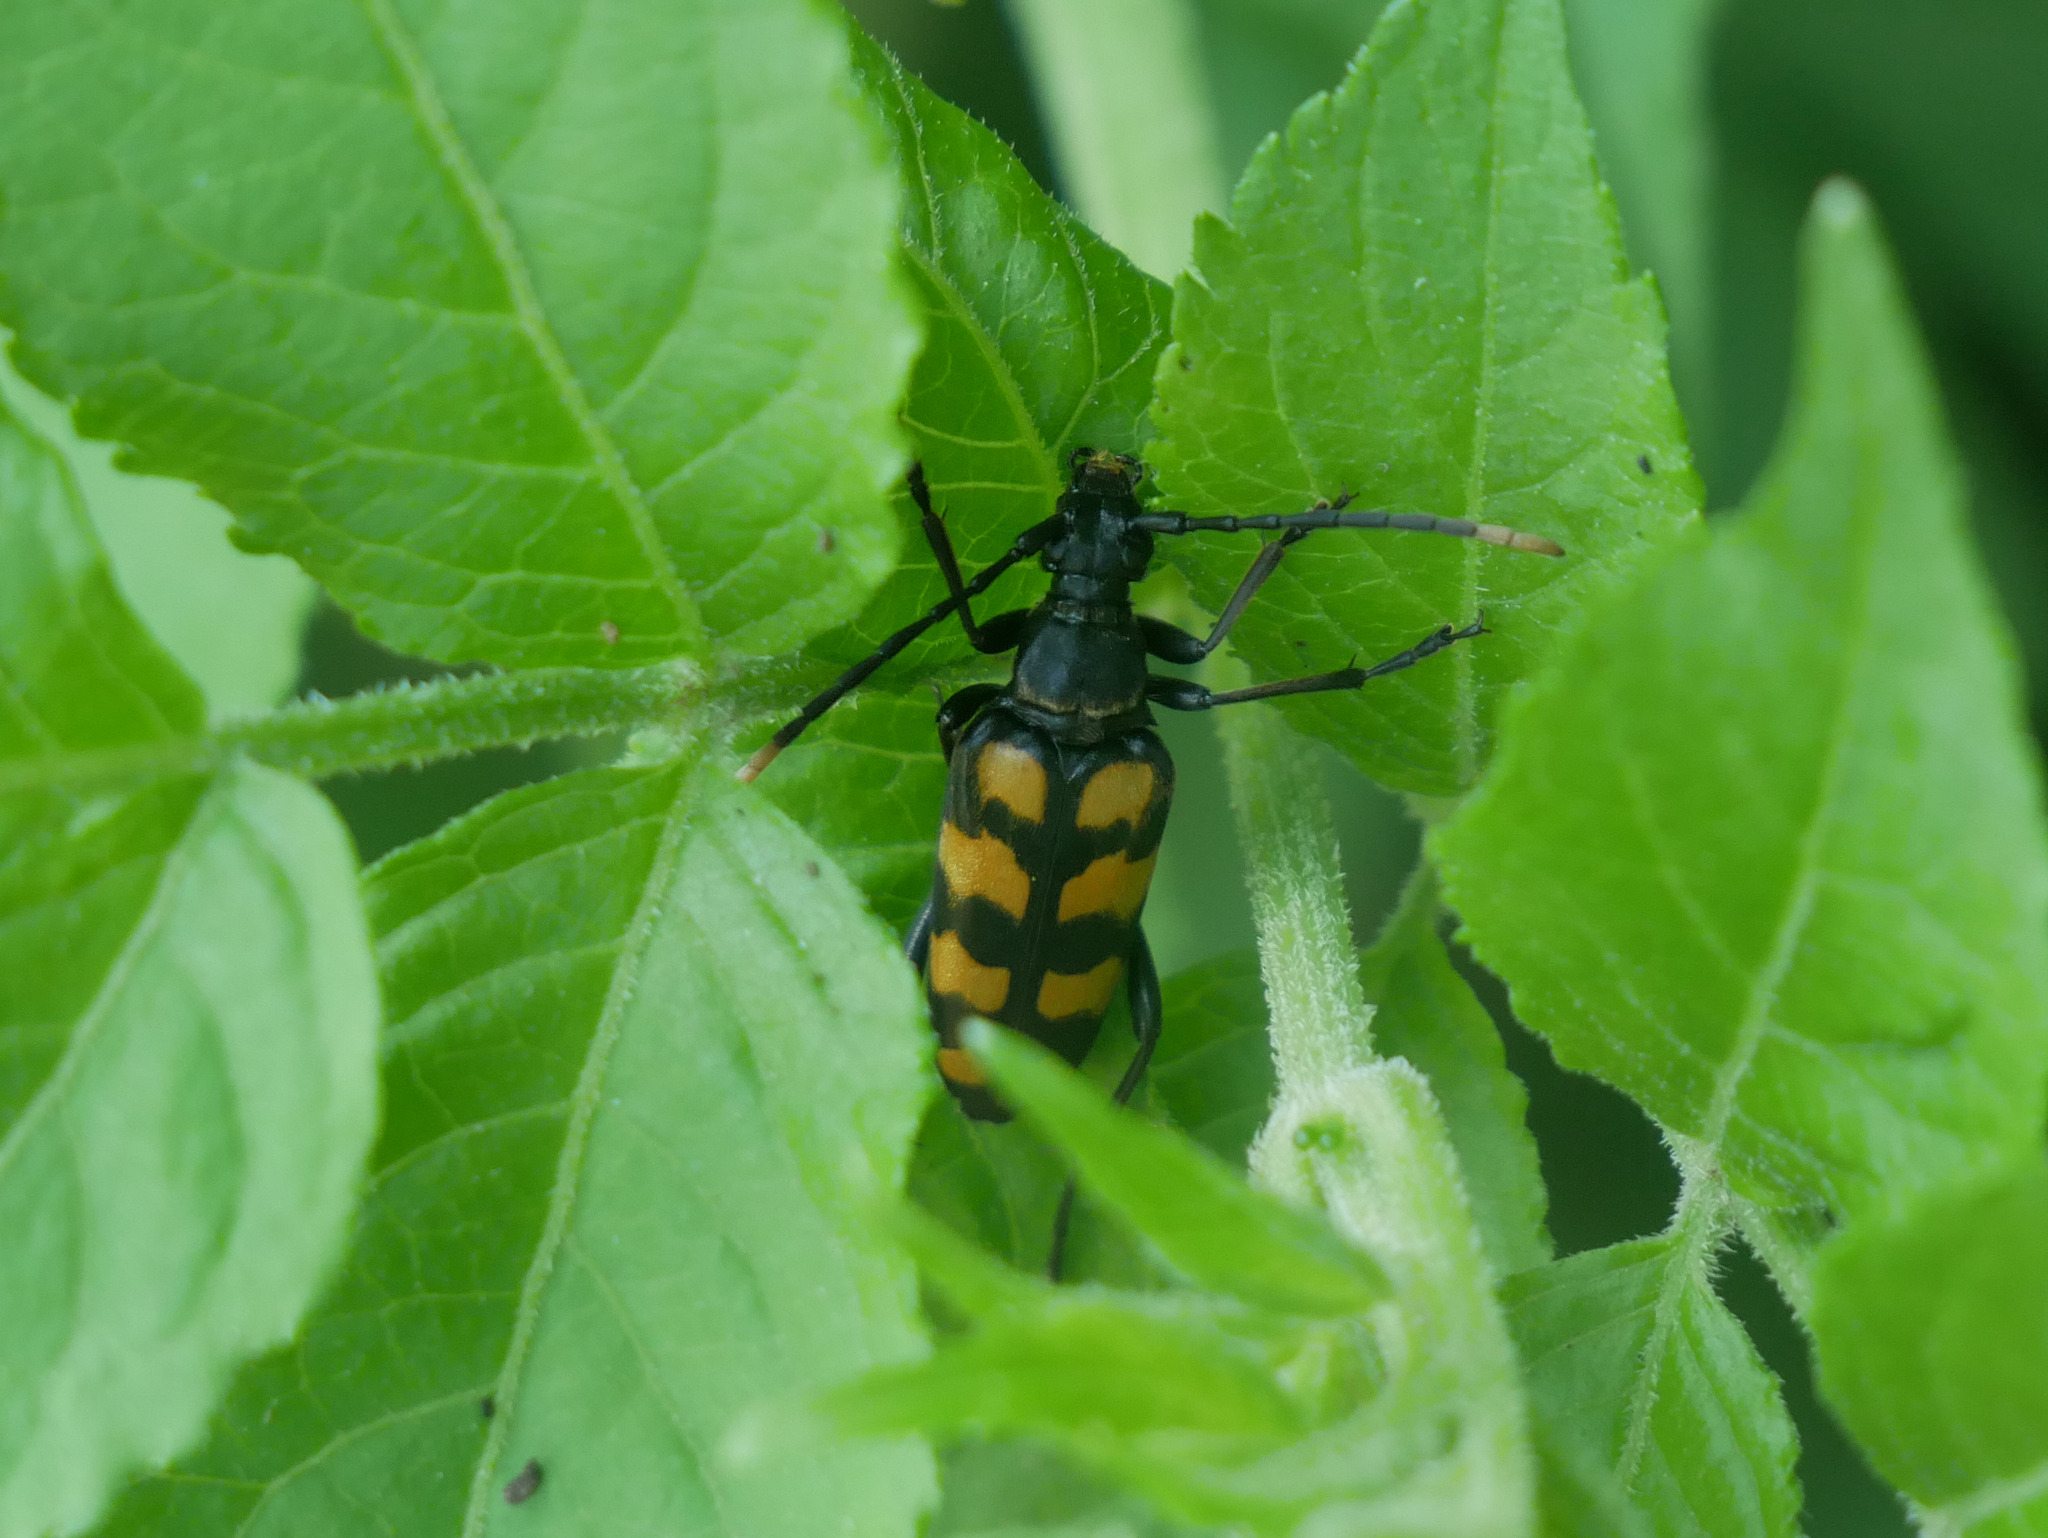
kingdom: Animalia
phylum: Arthropoda
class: Insecta
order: Coleoptera
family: Cerambycidae
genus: Leptura
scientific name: Leptura quadrifasciata
